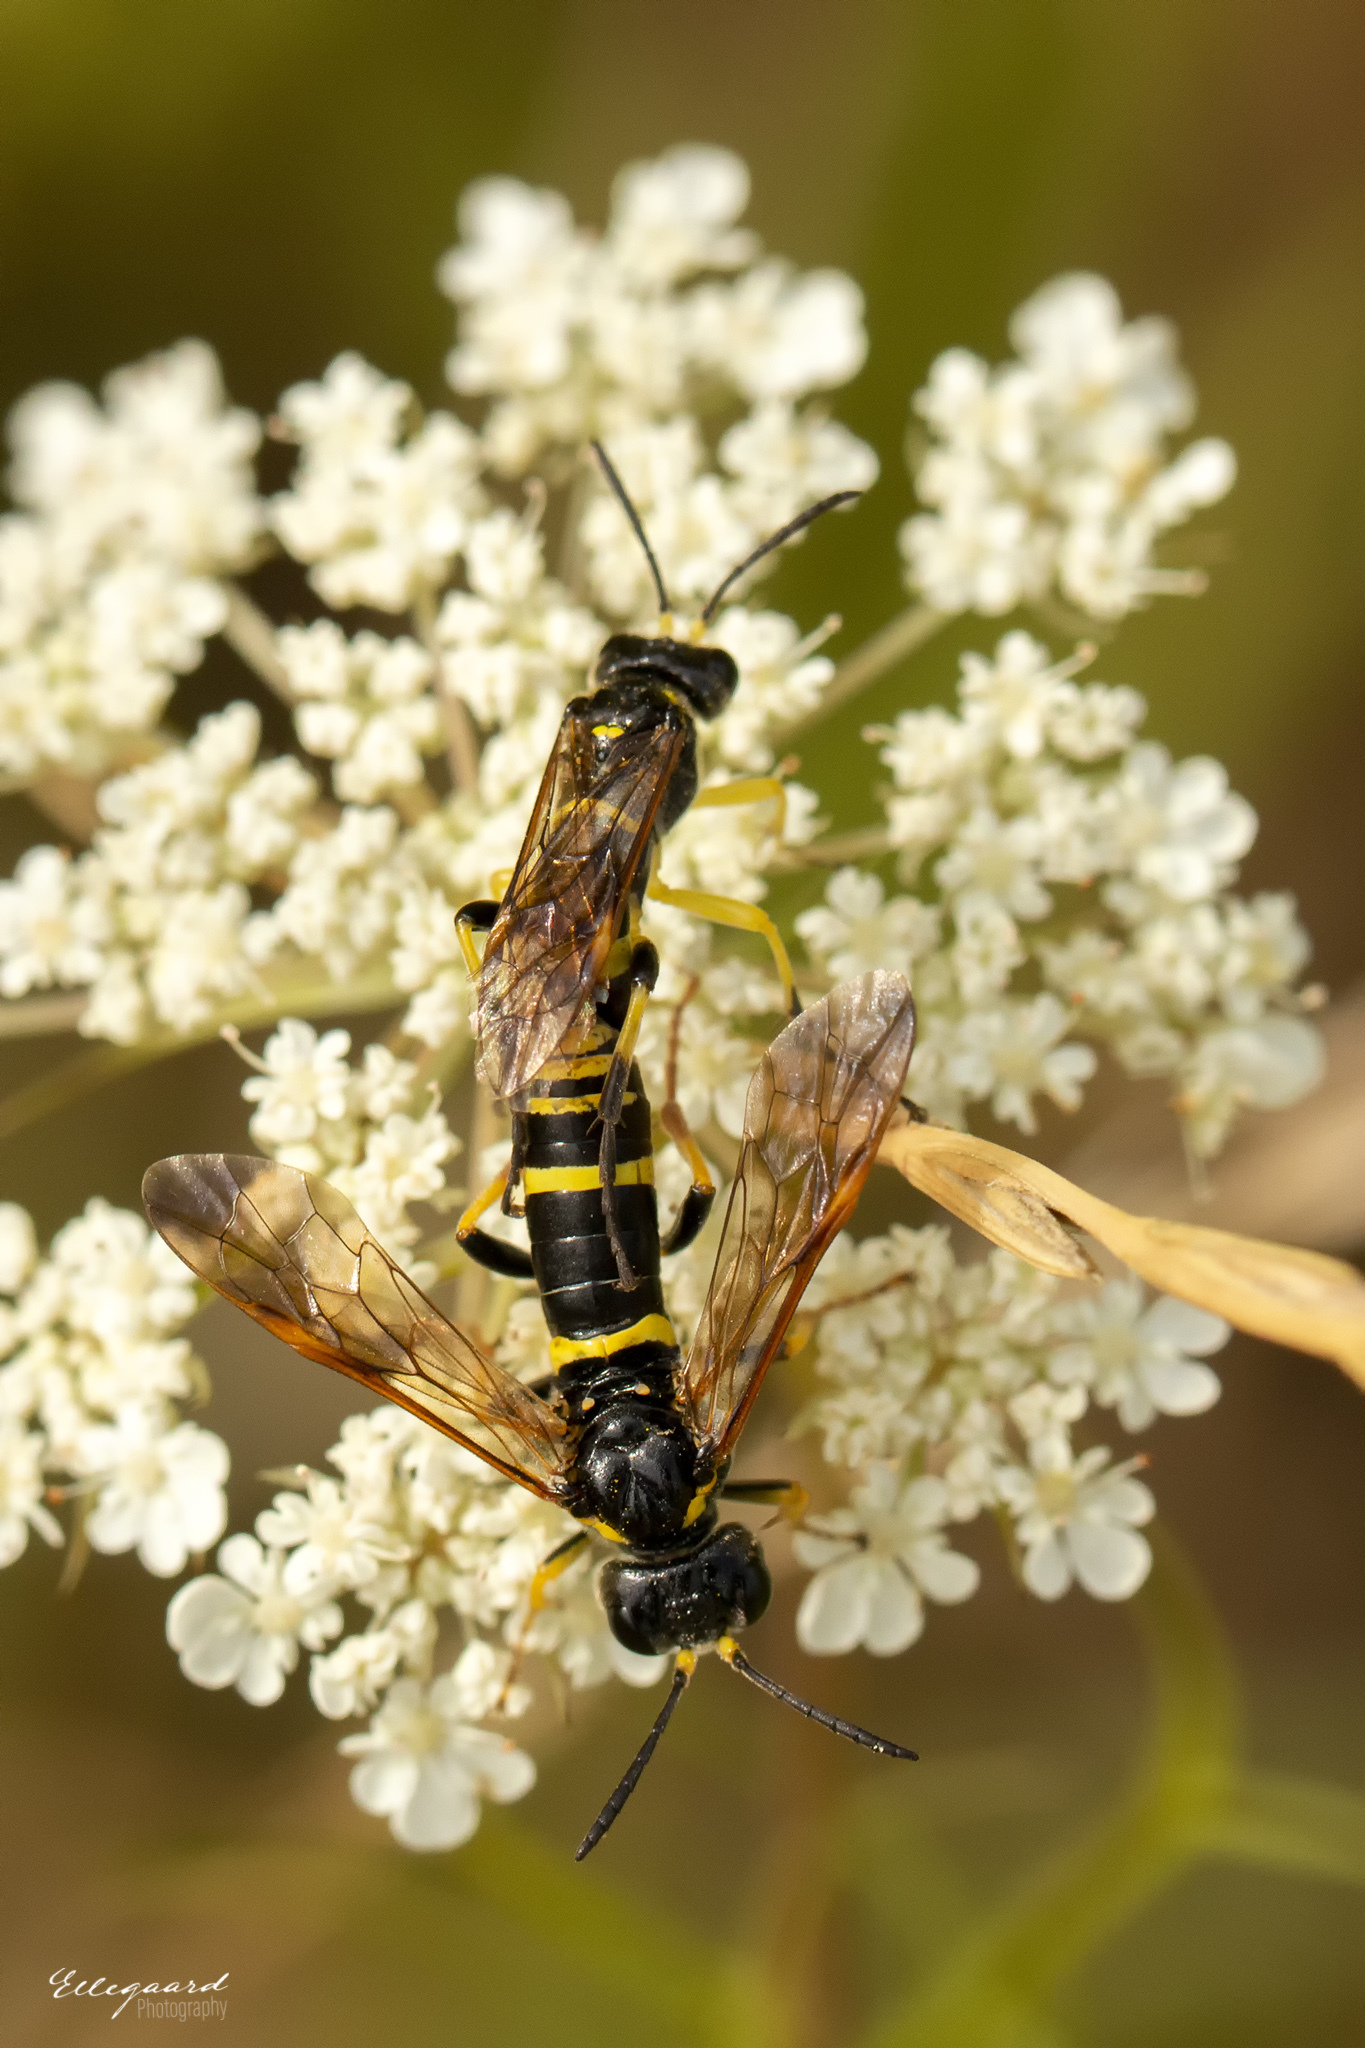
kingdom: Animalia
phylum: Arthropoda
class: Insecta
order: Hymenoptera
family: Tenthredinidae
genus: Tenthredo
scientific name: Tenthredo amoena
